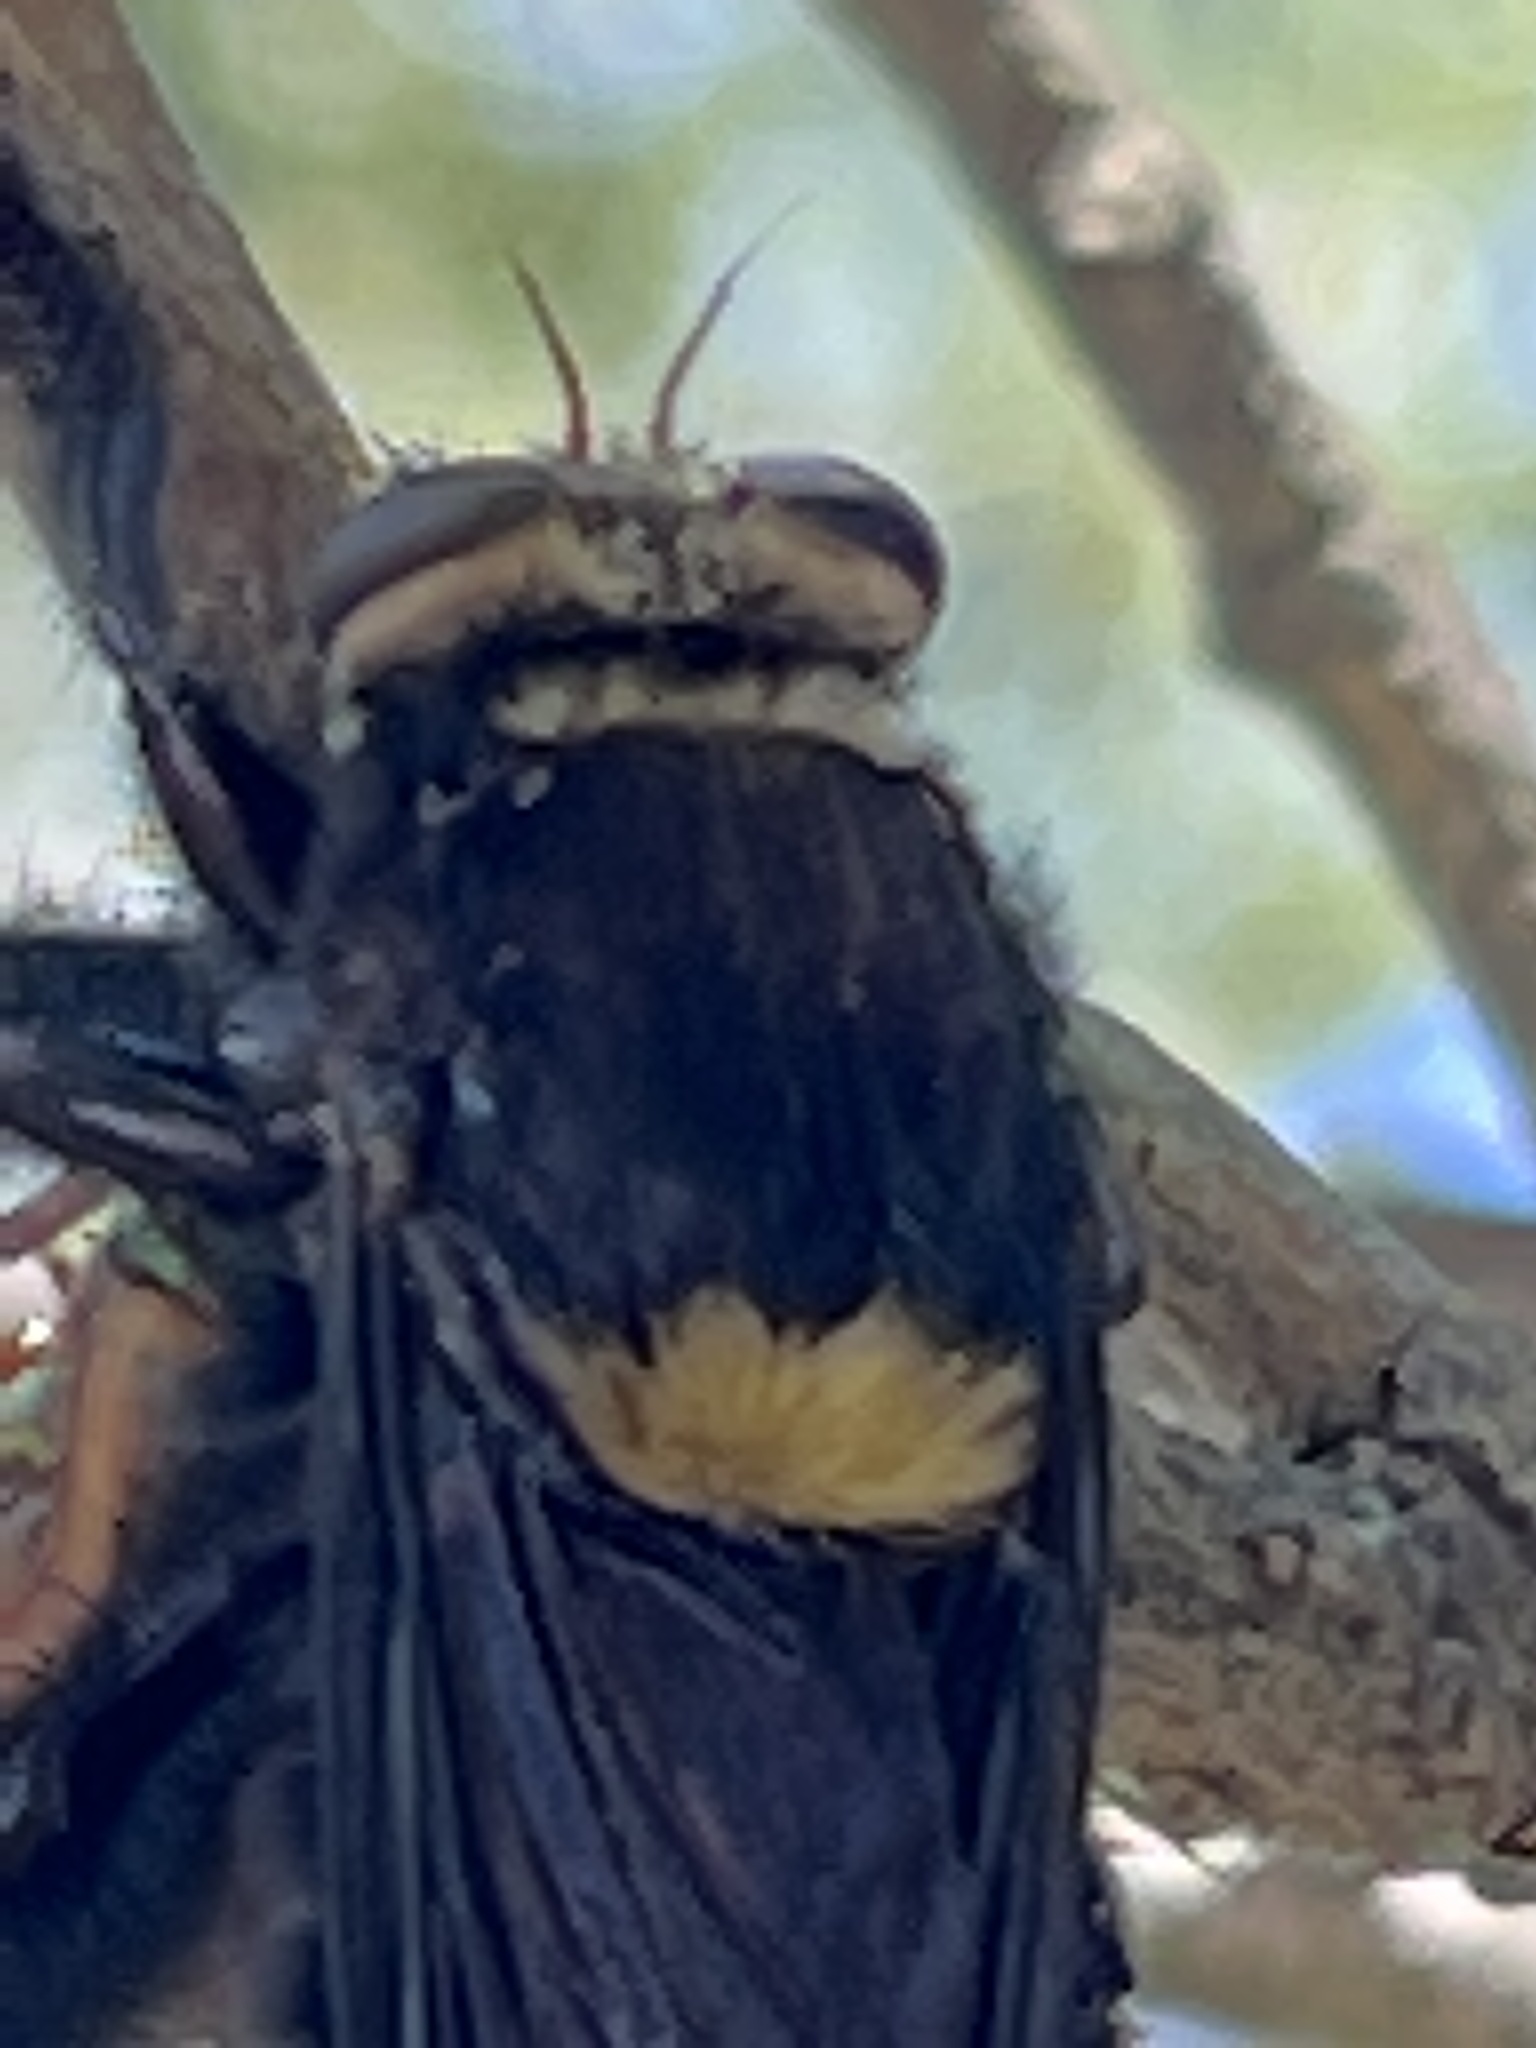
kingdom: Animalia
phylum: Arthropoda
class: Insecta
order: Diptera
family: Asilidae
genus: Mallophora
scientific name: Mallophora leschenaultii
